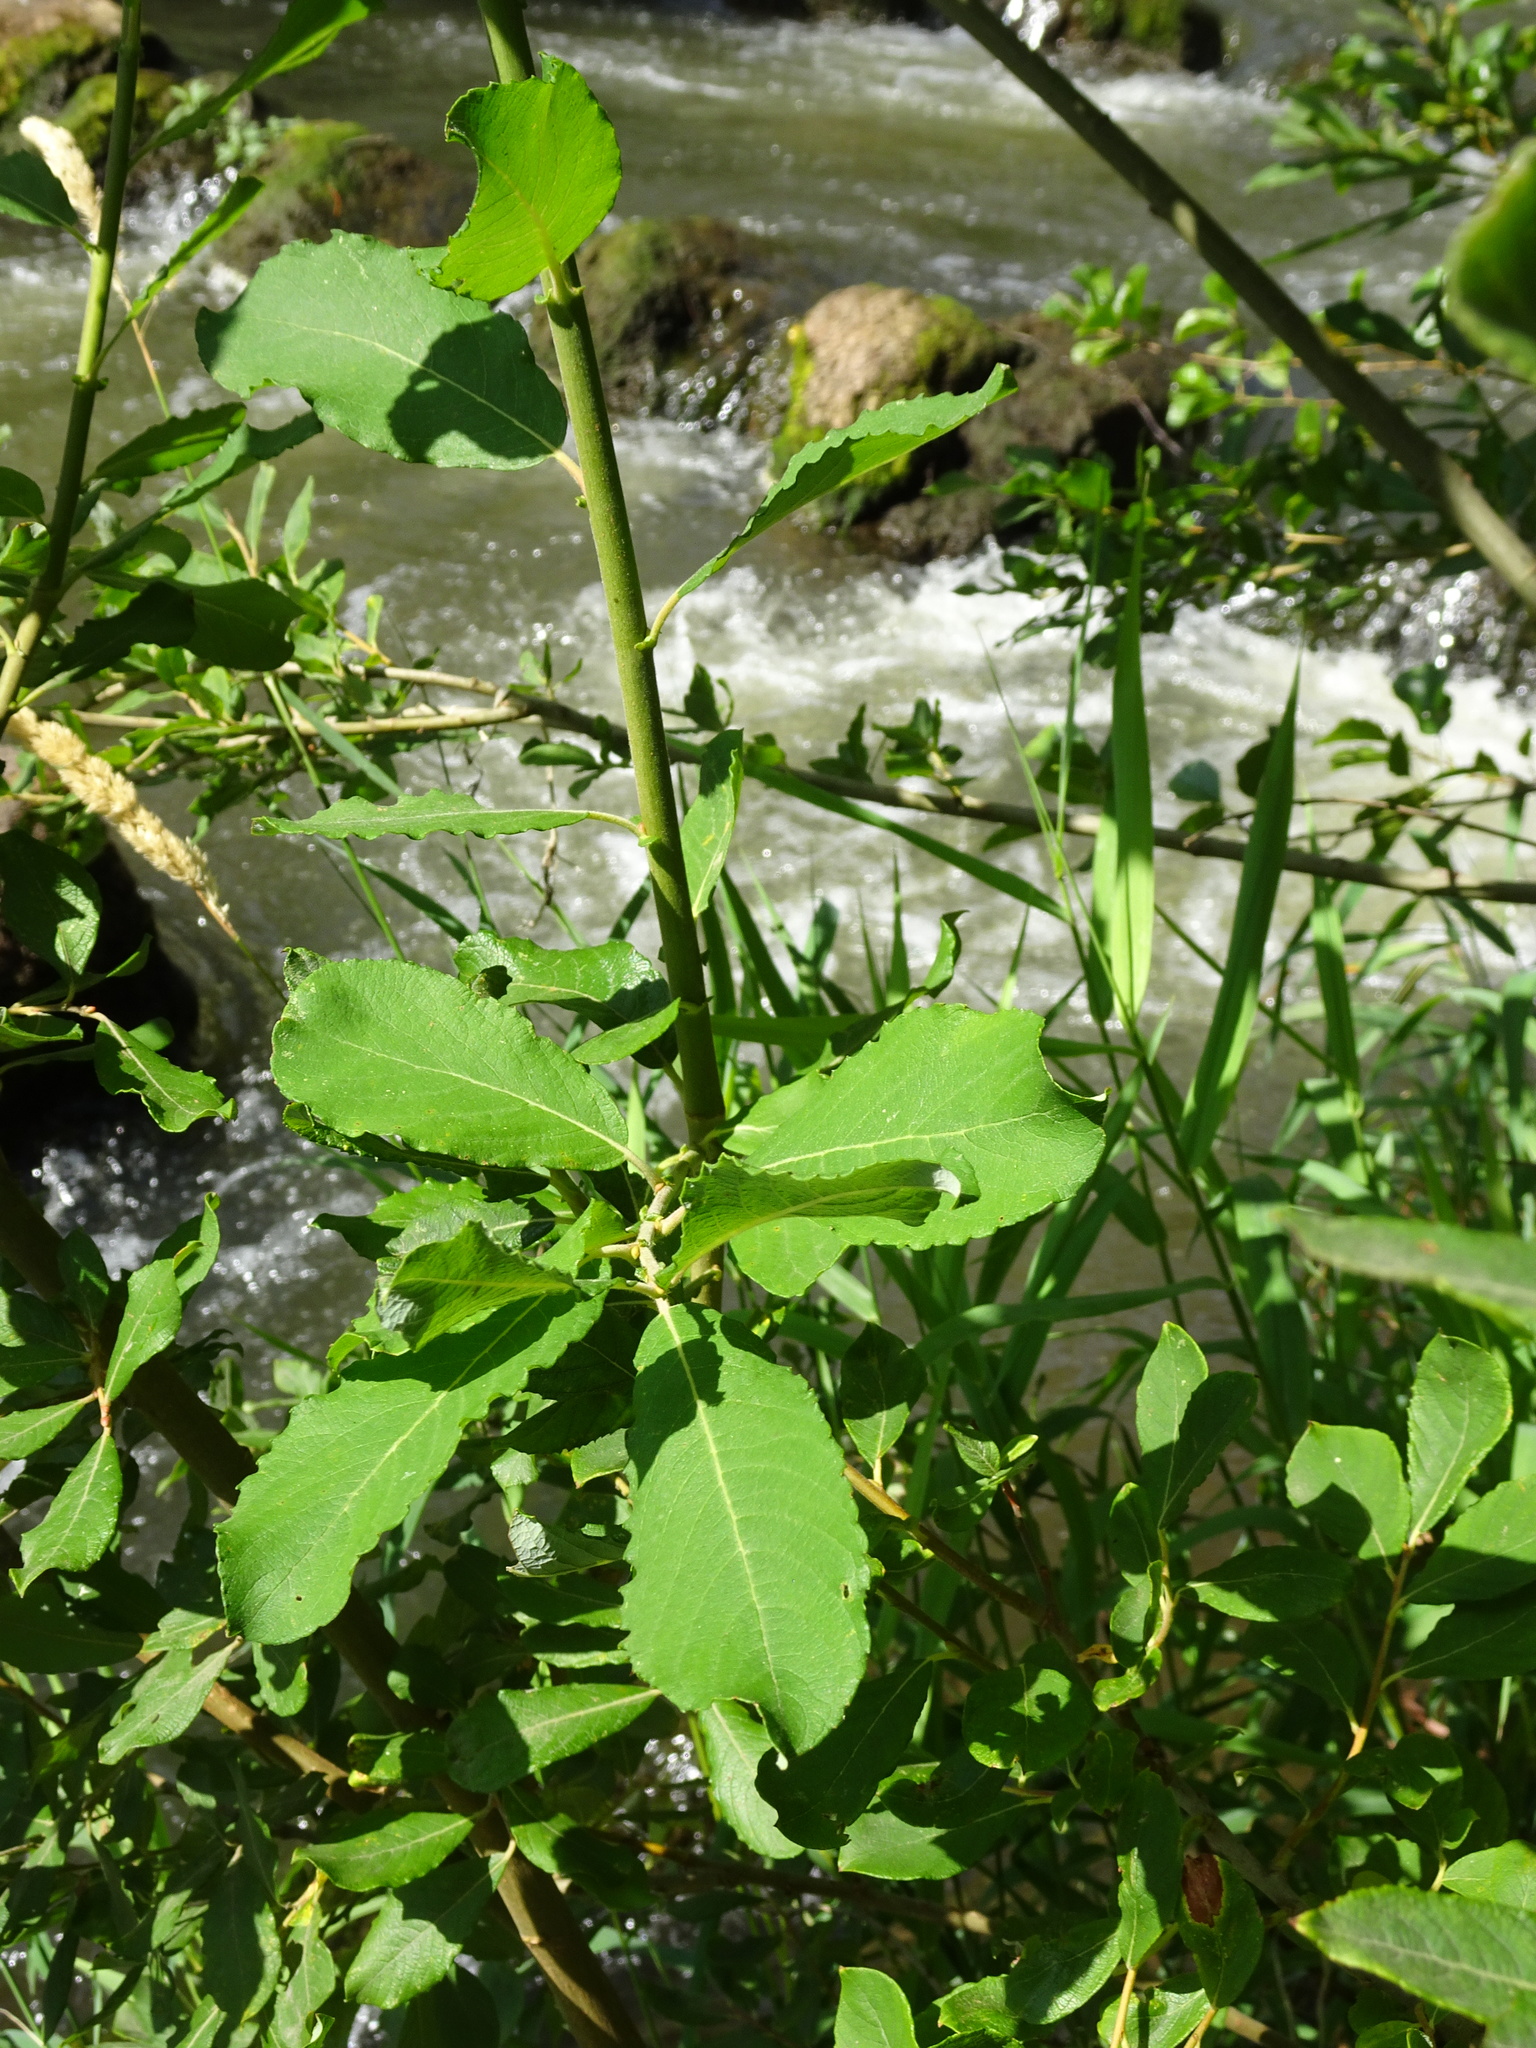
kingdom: Plantae
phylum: Tracheophyta
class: Magnoliopsida
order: Malpighiales
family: Salicaceae
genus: Salix
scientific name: Salix caprea
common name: Goat willow
